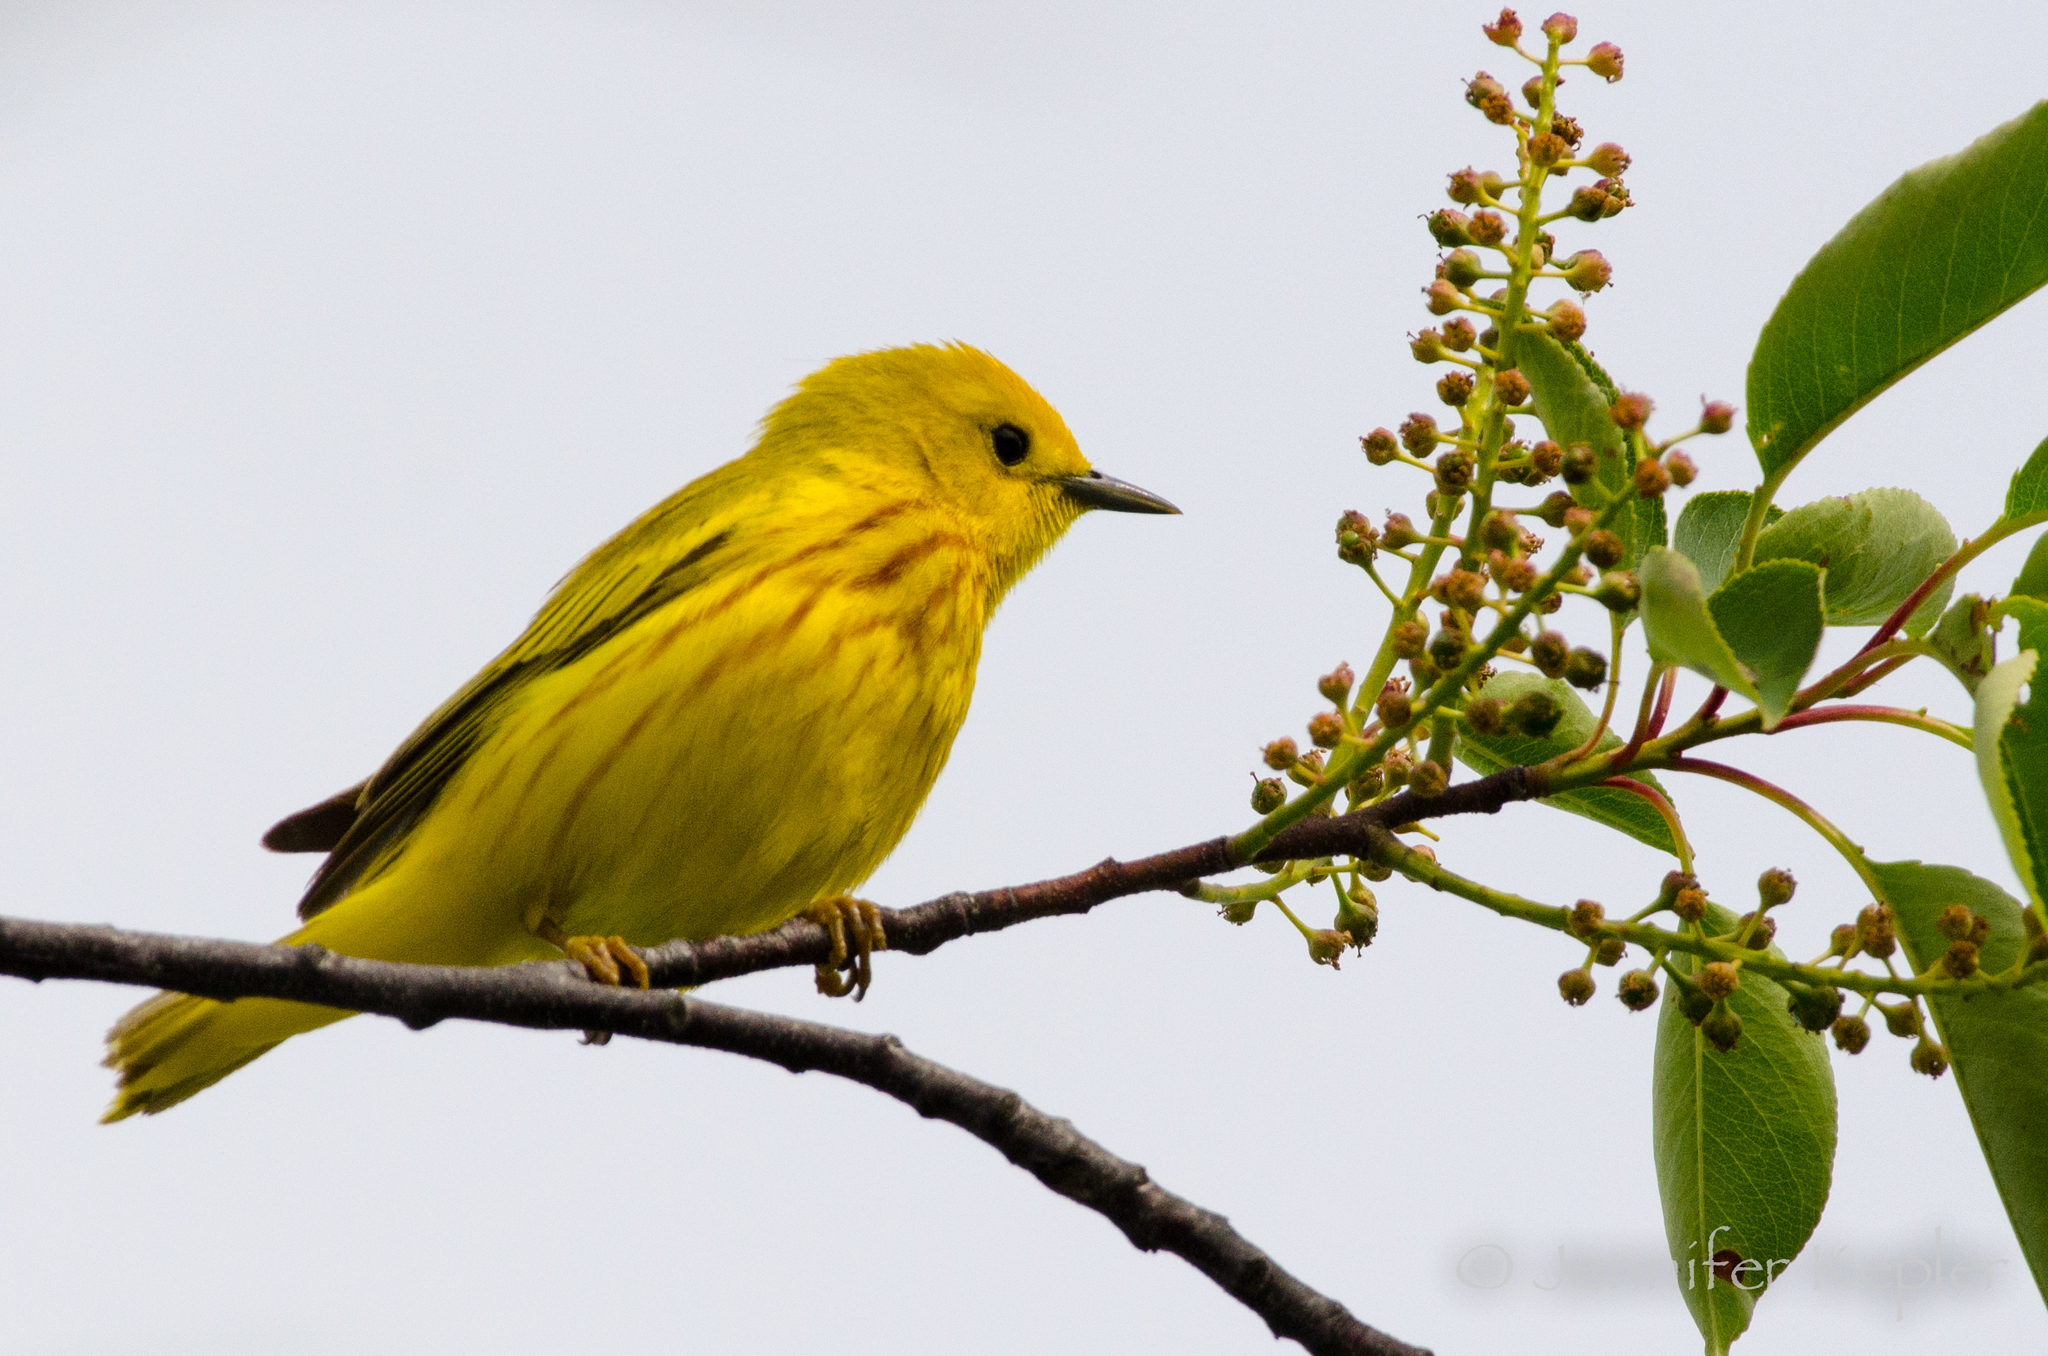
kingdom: Animalia
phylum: Chordata
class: Aves
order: Passeriformes
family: Parulidae
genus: Setophaga
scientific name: Setophaga petechia
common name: Yellow warbler
